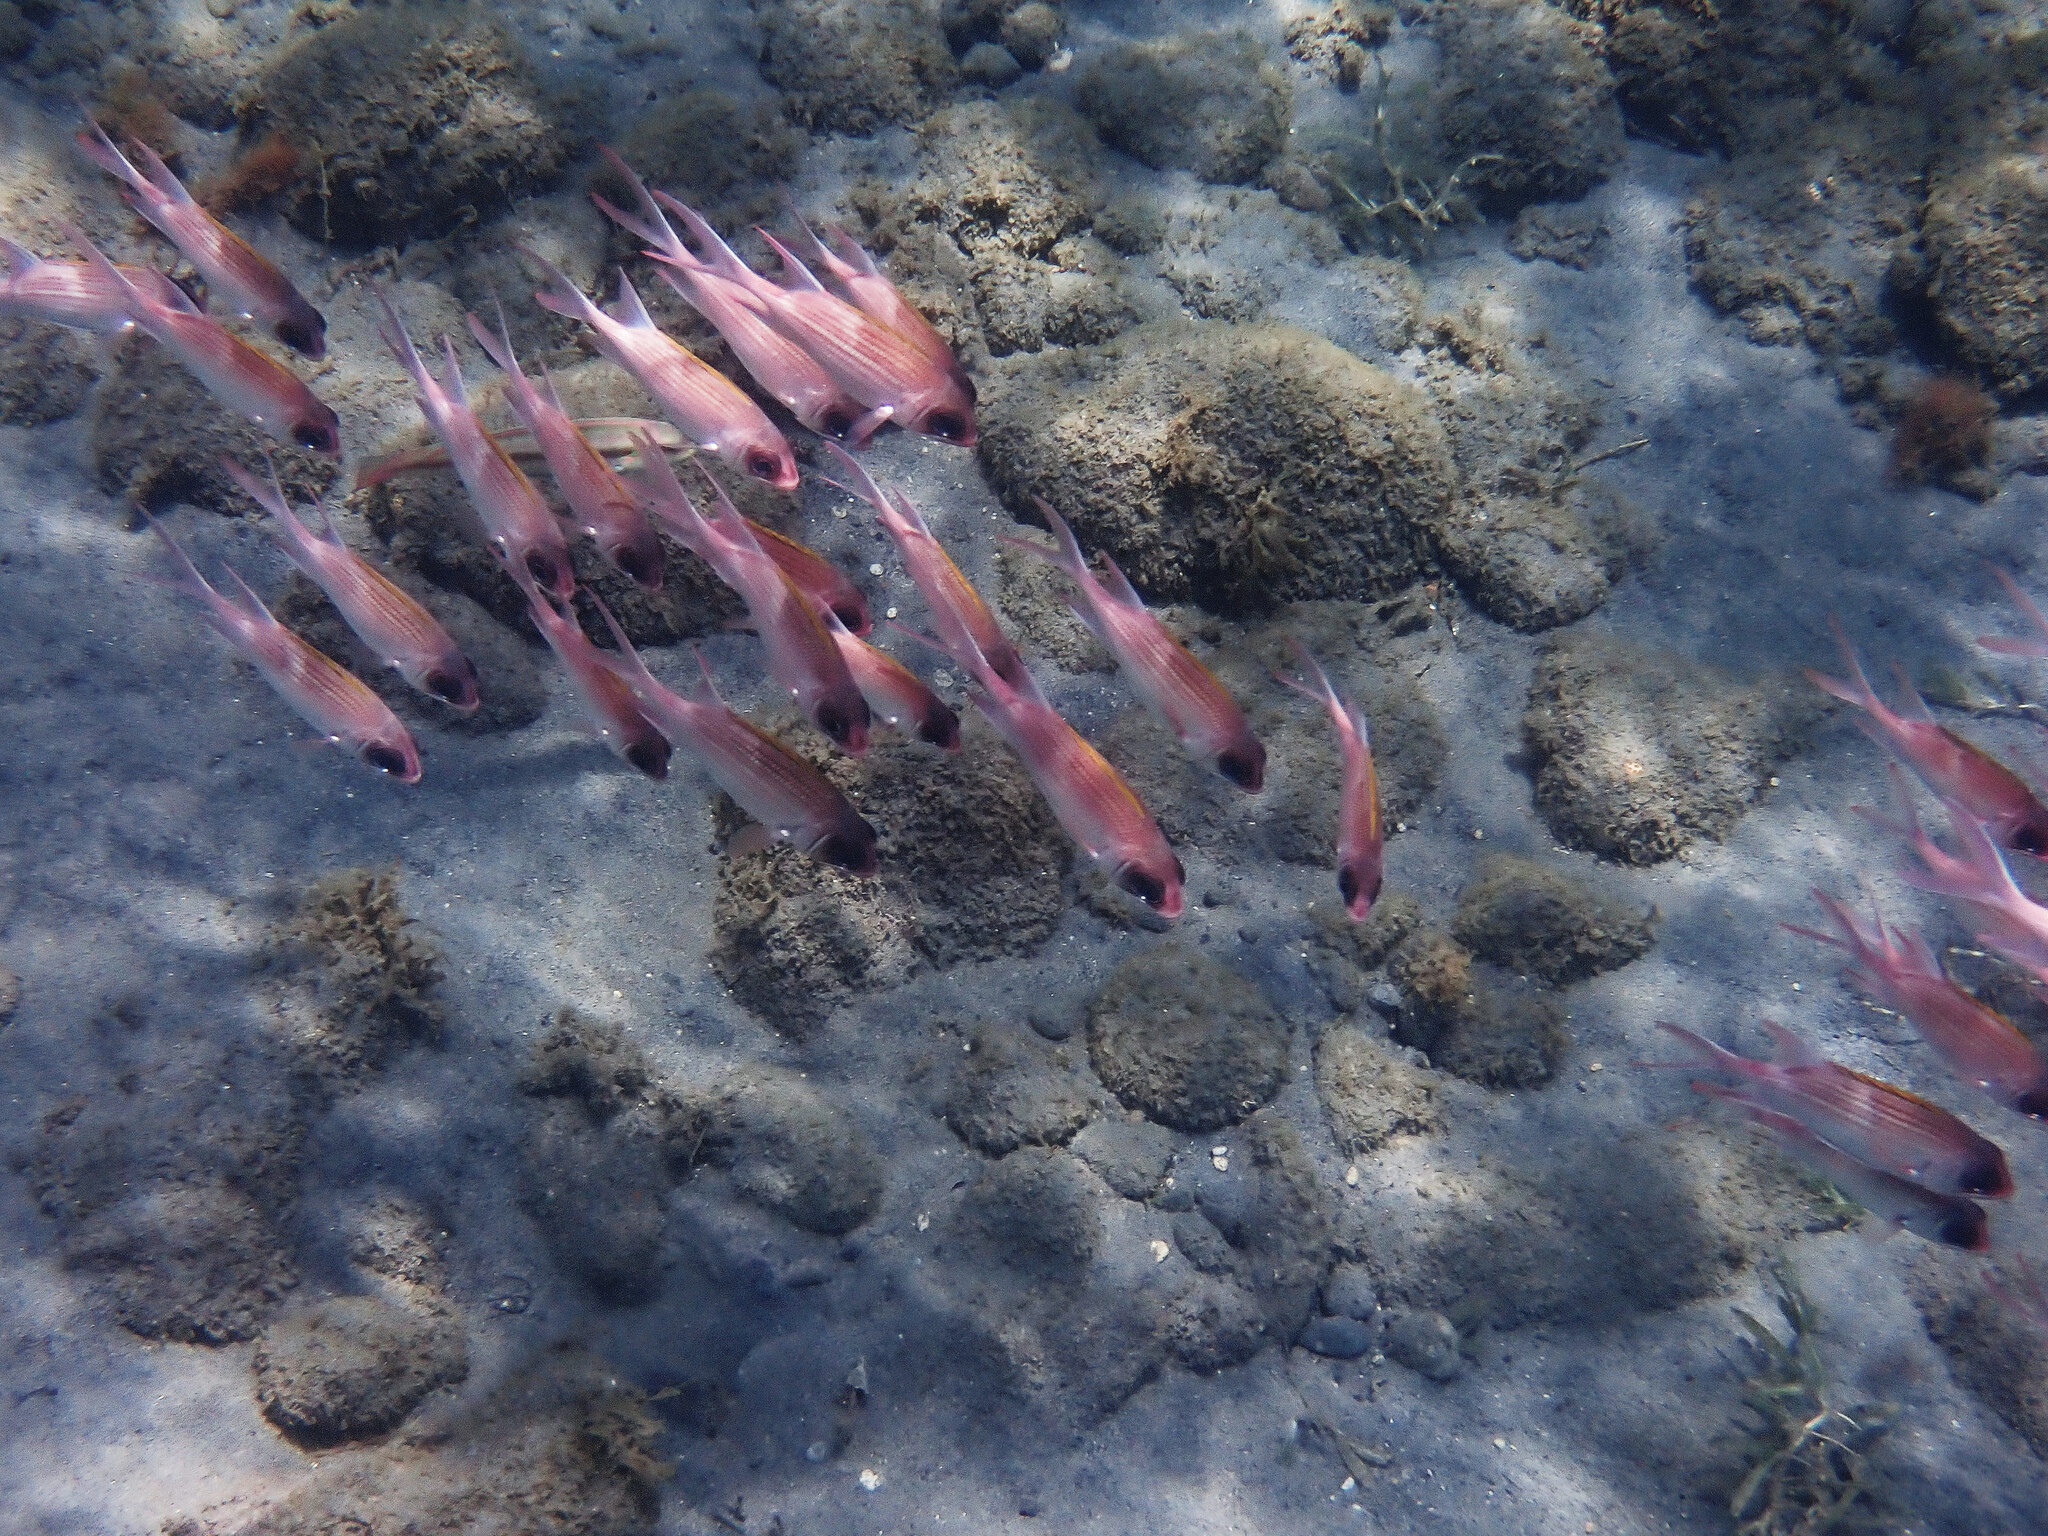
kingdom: Animalia
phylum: Chordata
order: Beryciformes
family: Holocentridae
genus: Holocentrus
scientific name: Holocentrus adscensionis
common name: Squirrelfish
